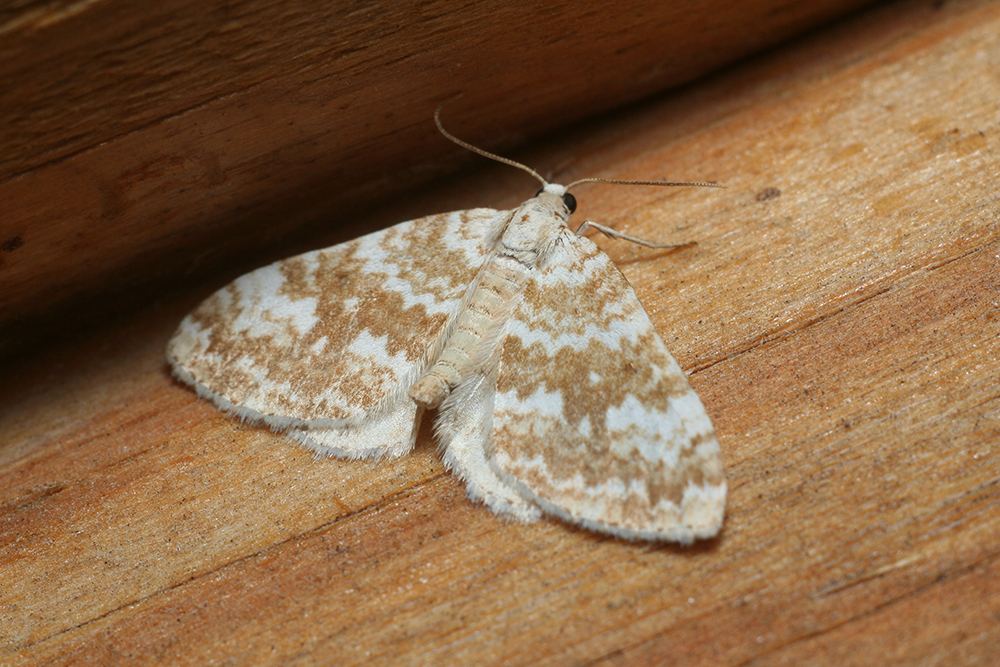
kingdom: Animalia
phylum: Arthropoda
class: Insecta
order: Lepidoptera
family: Geometridae
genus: Perizoma
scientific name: Perizoma flavofasciata
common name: Sandy carpet
